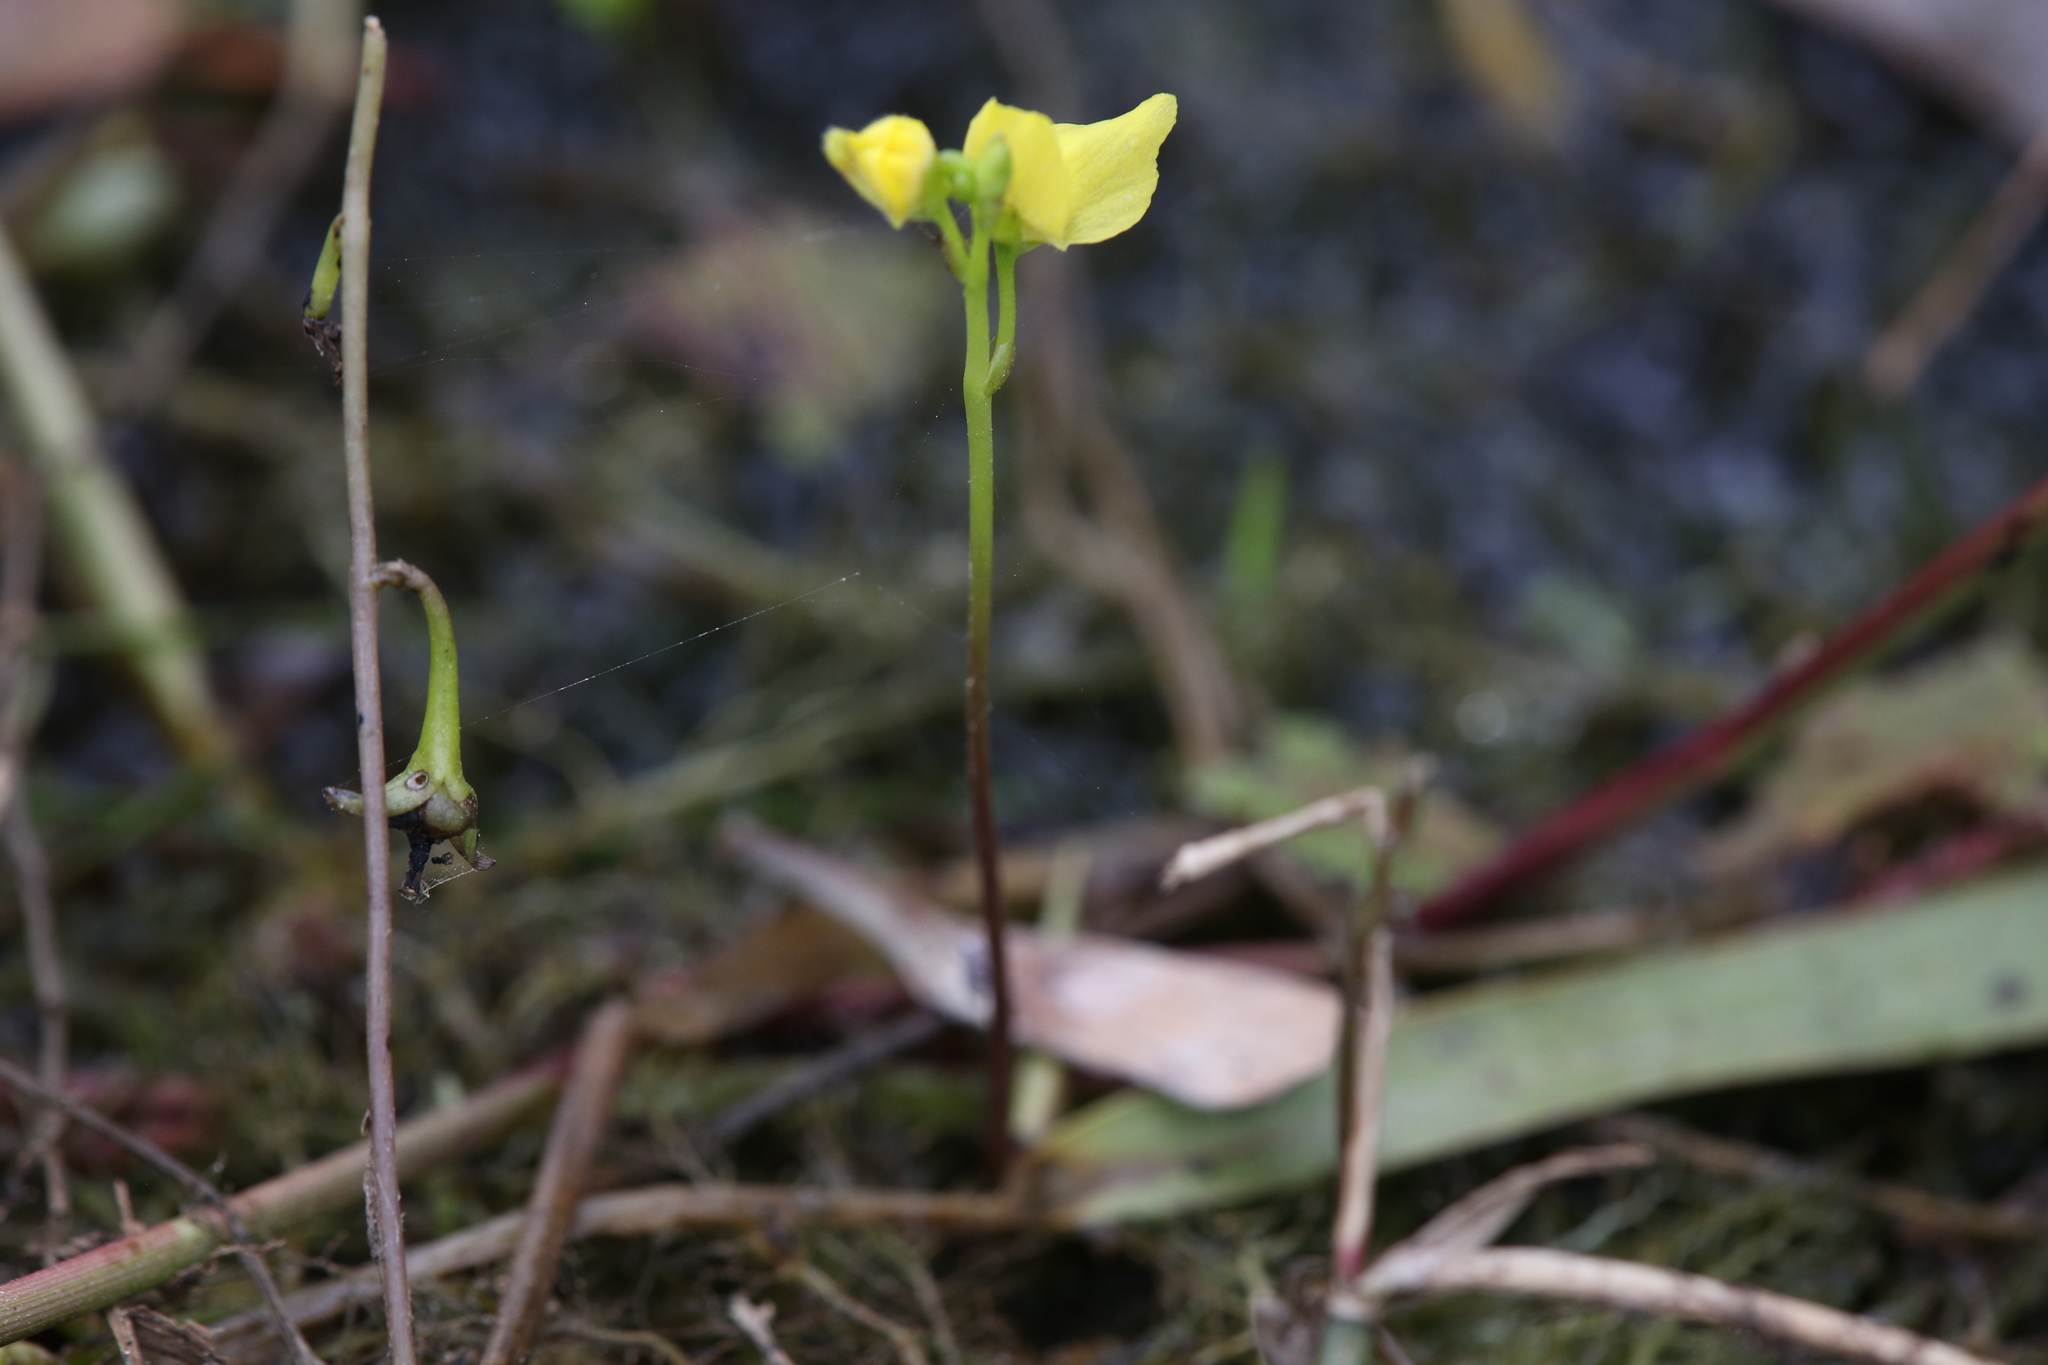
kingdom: Plantae
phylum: Tracheophyta
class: Magnoliopsida
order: Lamiales
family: Lentibulariaceae
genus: Utricularia
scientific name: Utricularia aurea
